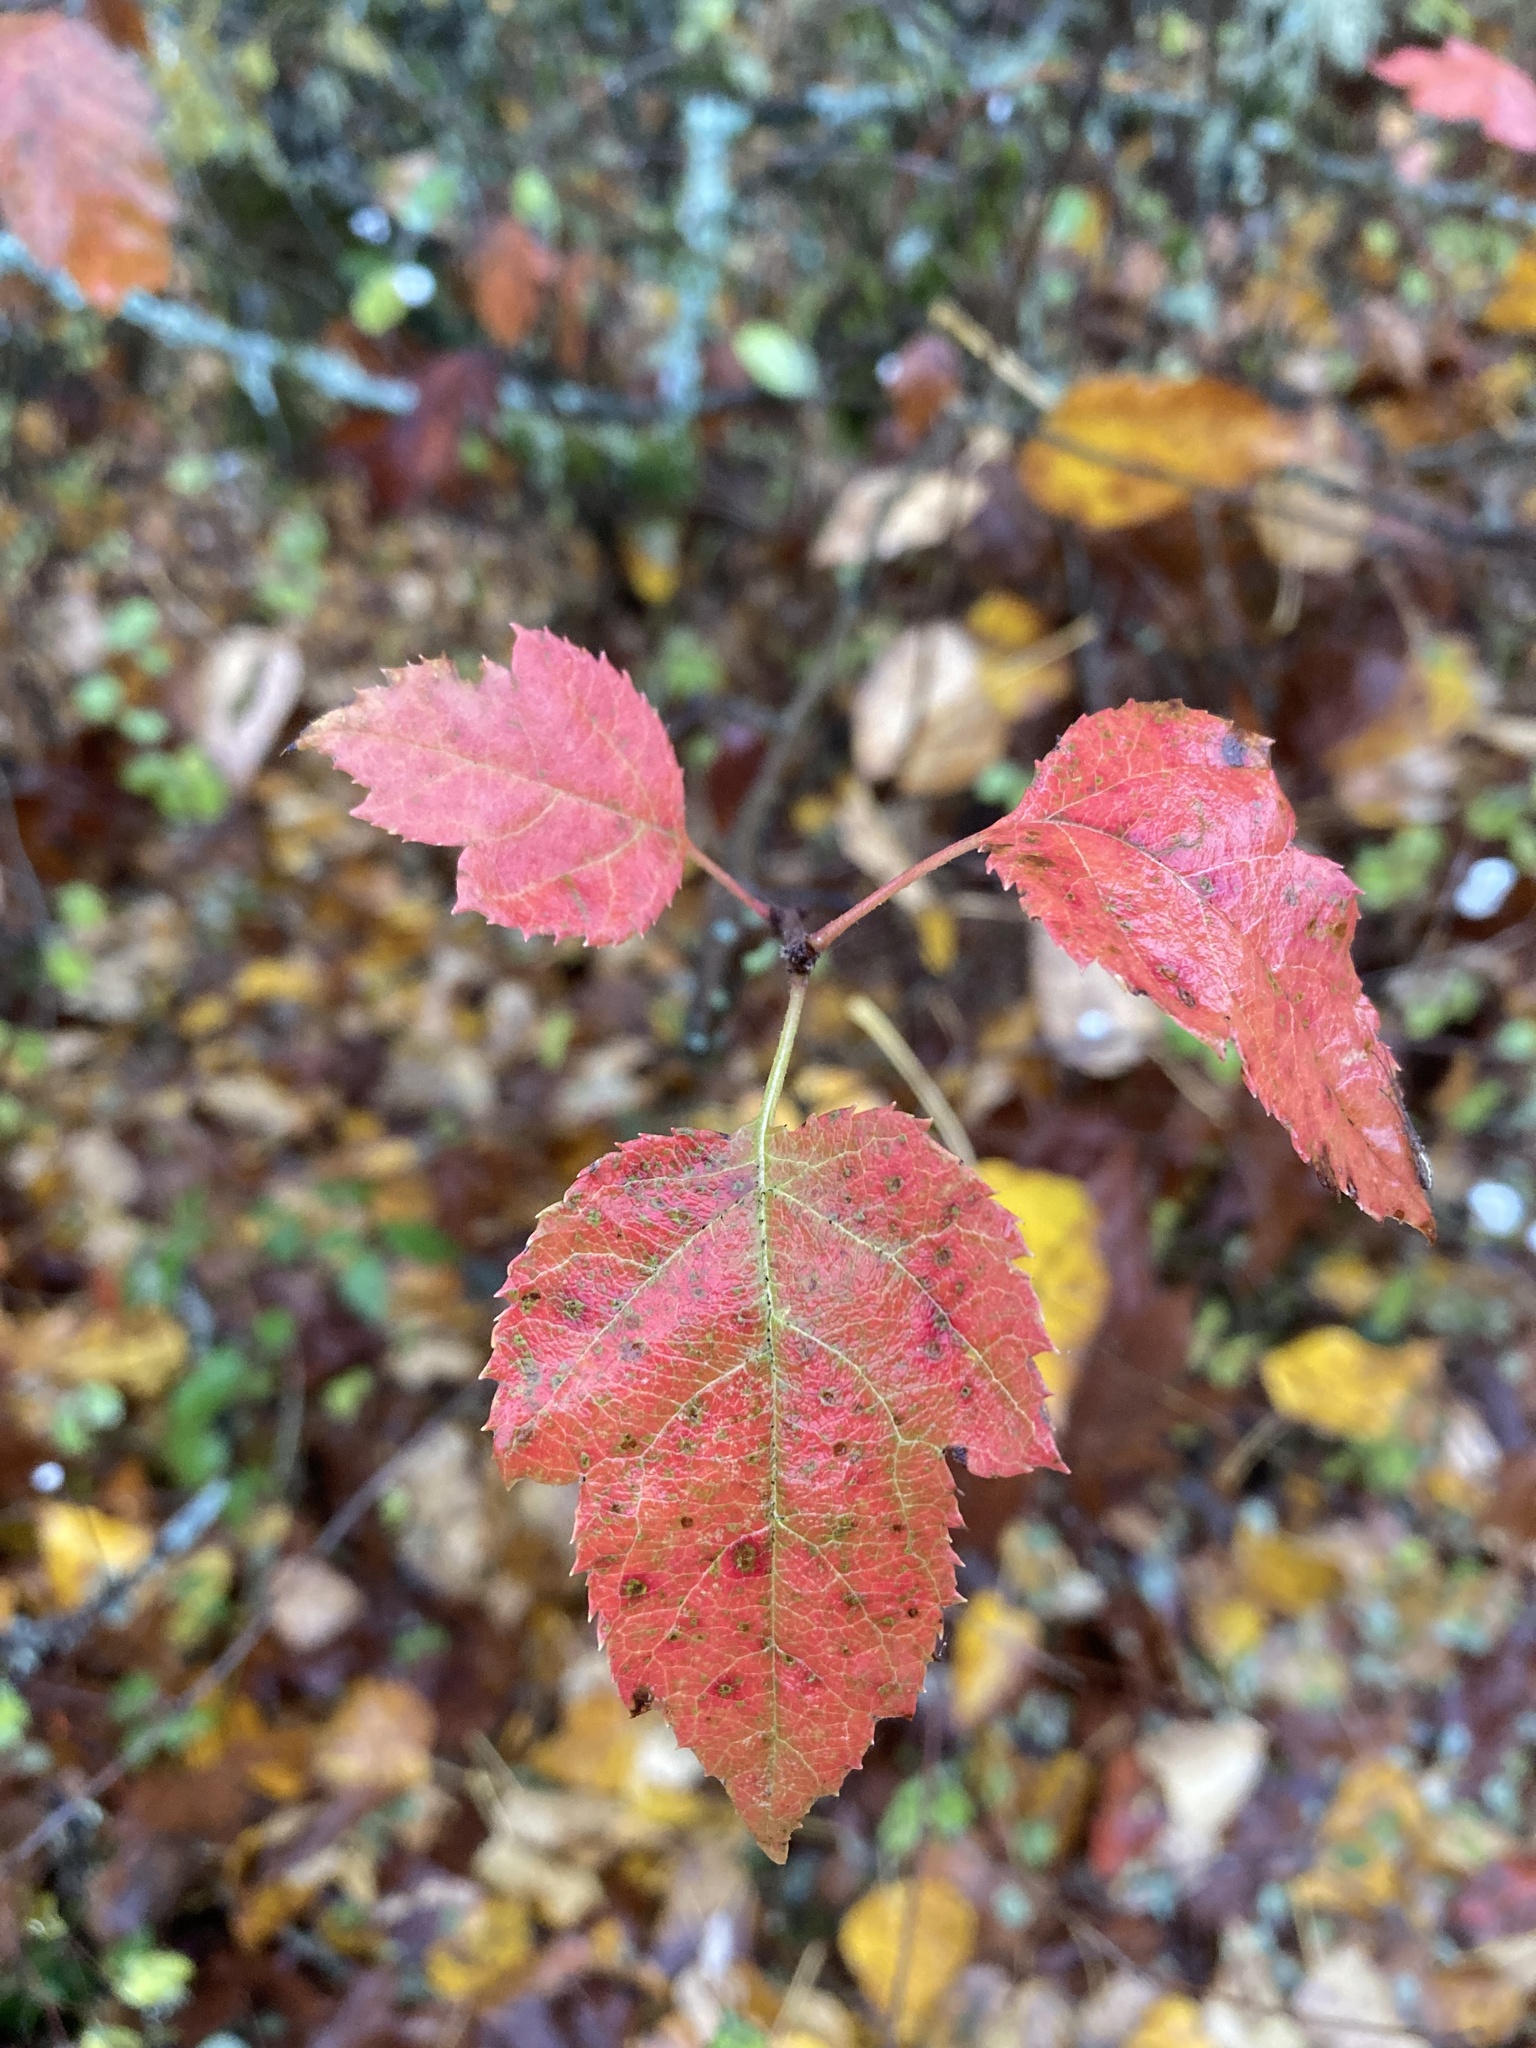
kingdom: Plantae
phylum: Tracheophyta
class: Magnoliopsida
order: Rosales
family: Rosaceae
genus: Malus
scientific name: Malus fusca
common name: Oregon crab apple
